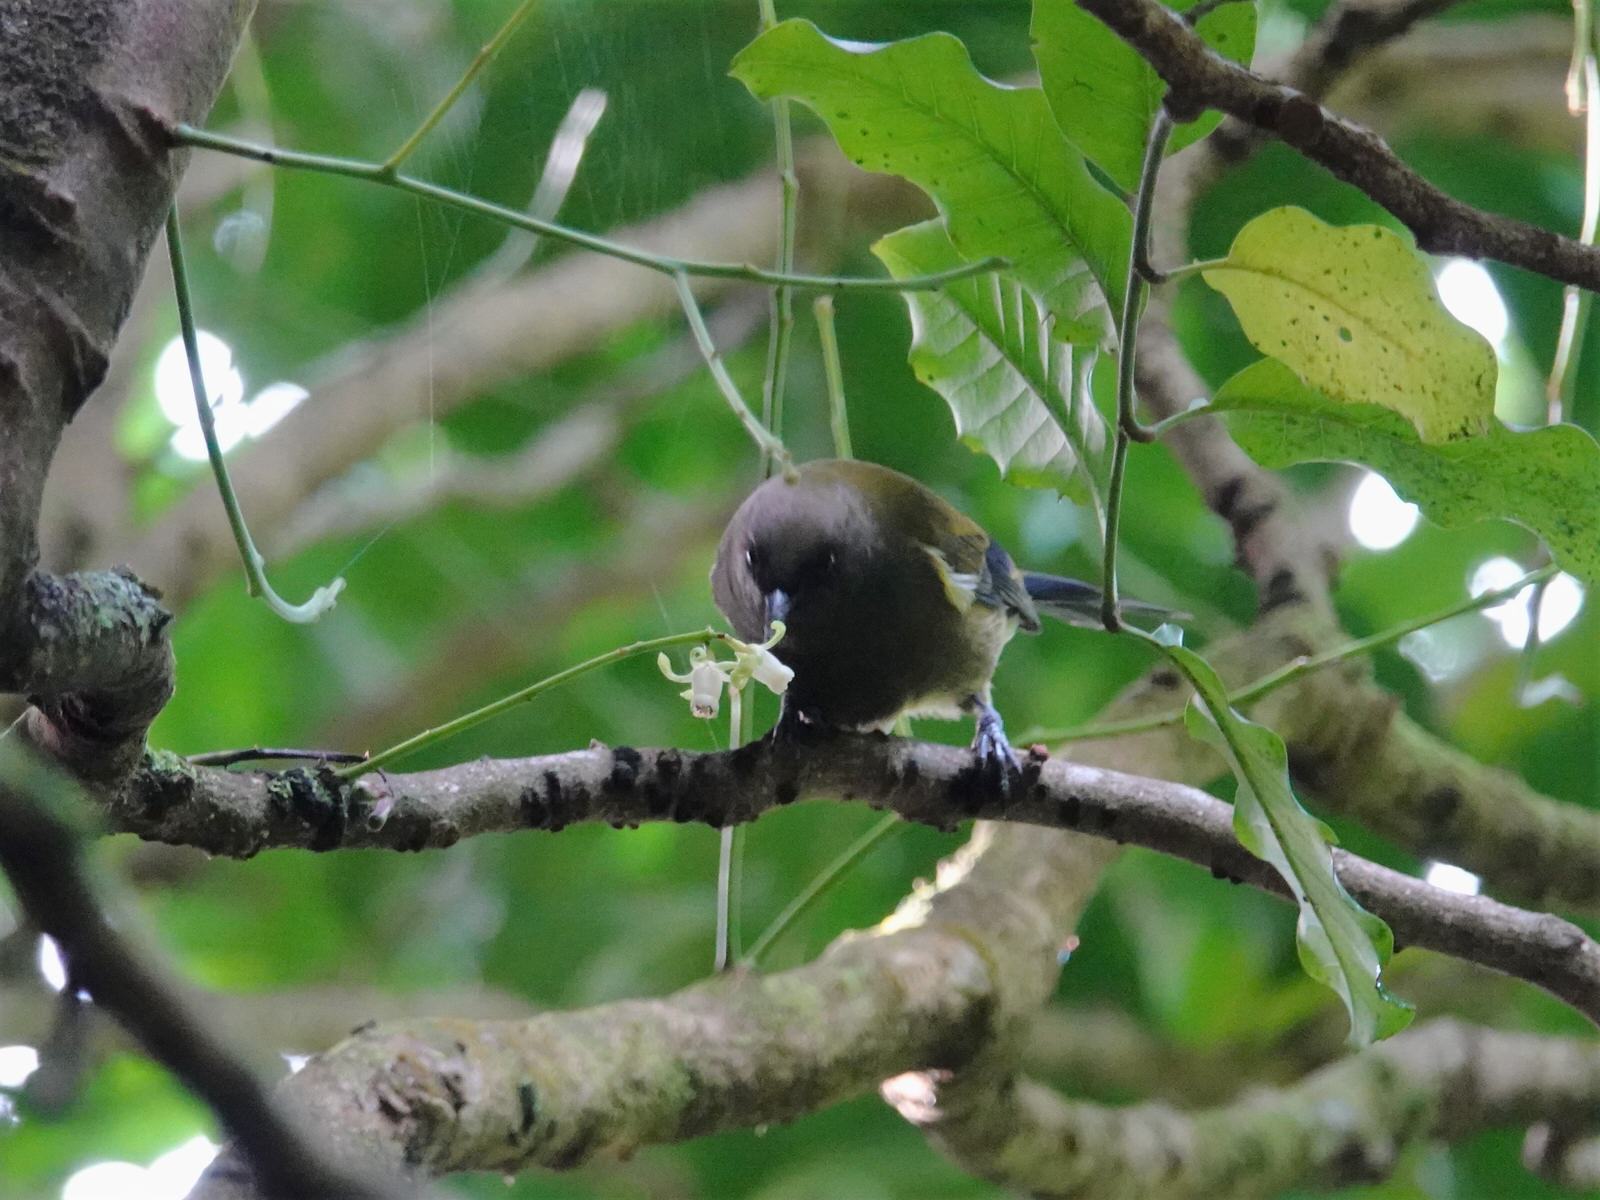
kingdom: Animalia
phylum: Chordata
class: Aves
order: Passeriformes
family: Meliphagidae
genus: Anthornis
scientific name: Anthornis melanura
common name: New zealand bellbird
